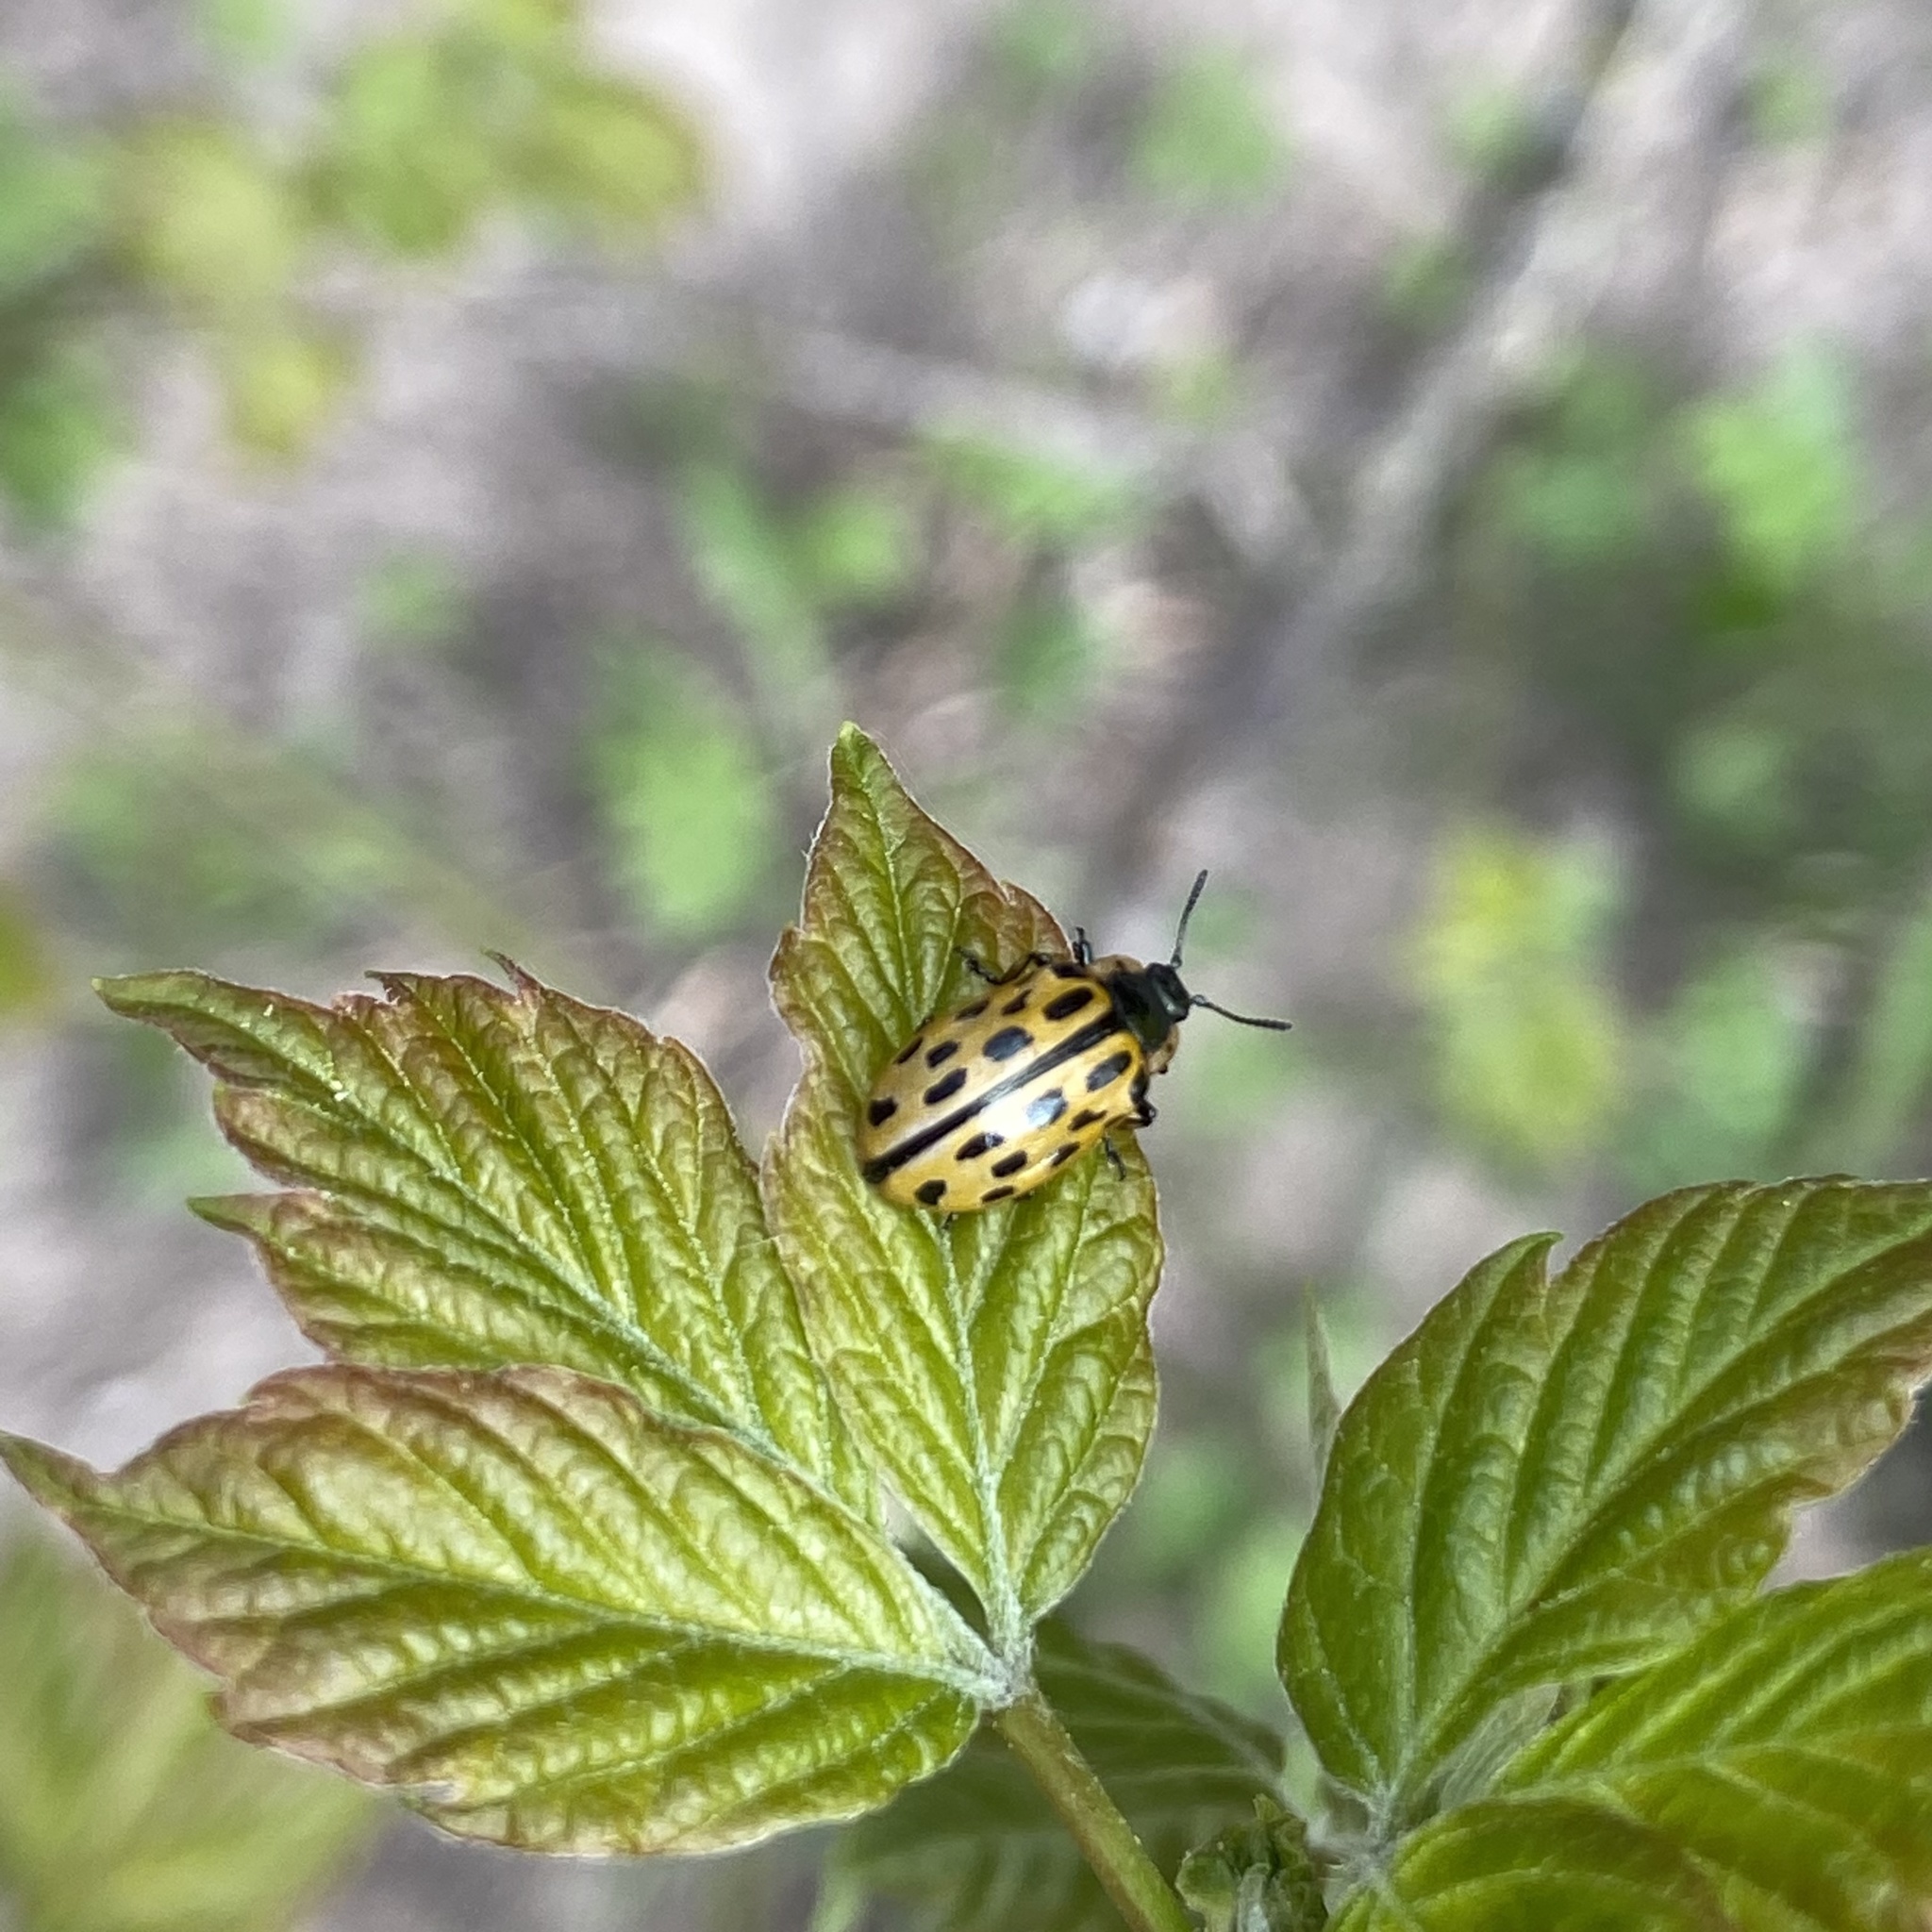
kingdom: Animalia
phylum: Arthropoda
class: Insecta
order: Coleoptera
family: Chrysomelidae
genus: Chrysomela
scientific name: Chrysomela vigintipunctata
